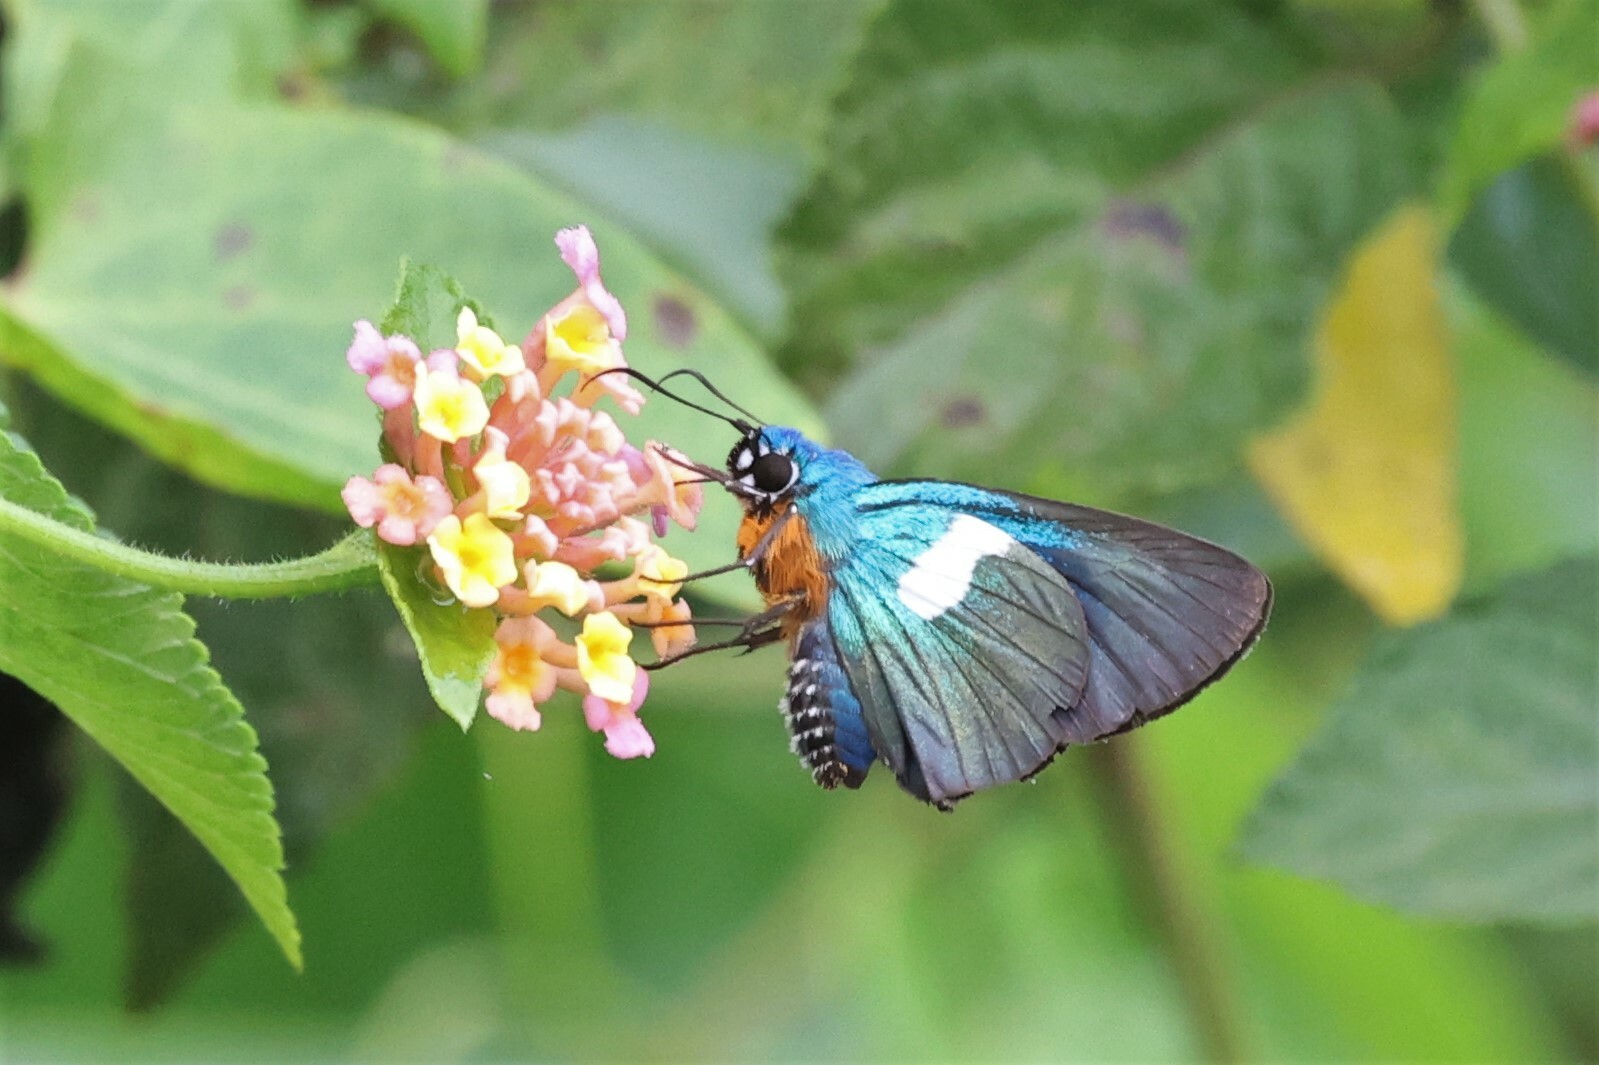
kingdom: Animalia
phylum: Arthropoda
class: Insecta
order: Lepidoptera
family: Hesperiidae
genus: Coeliades
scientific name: Coeliades chalybe
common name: Blue policeman
